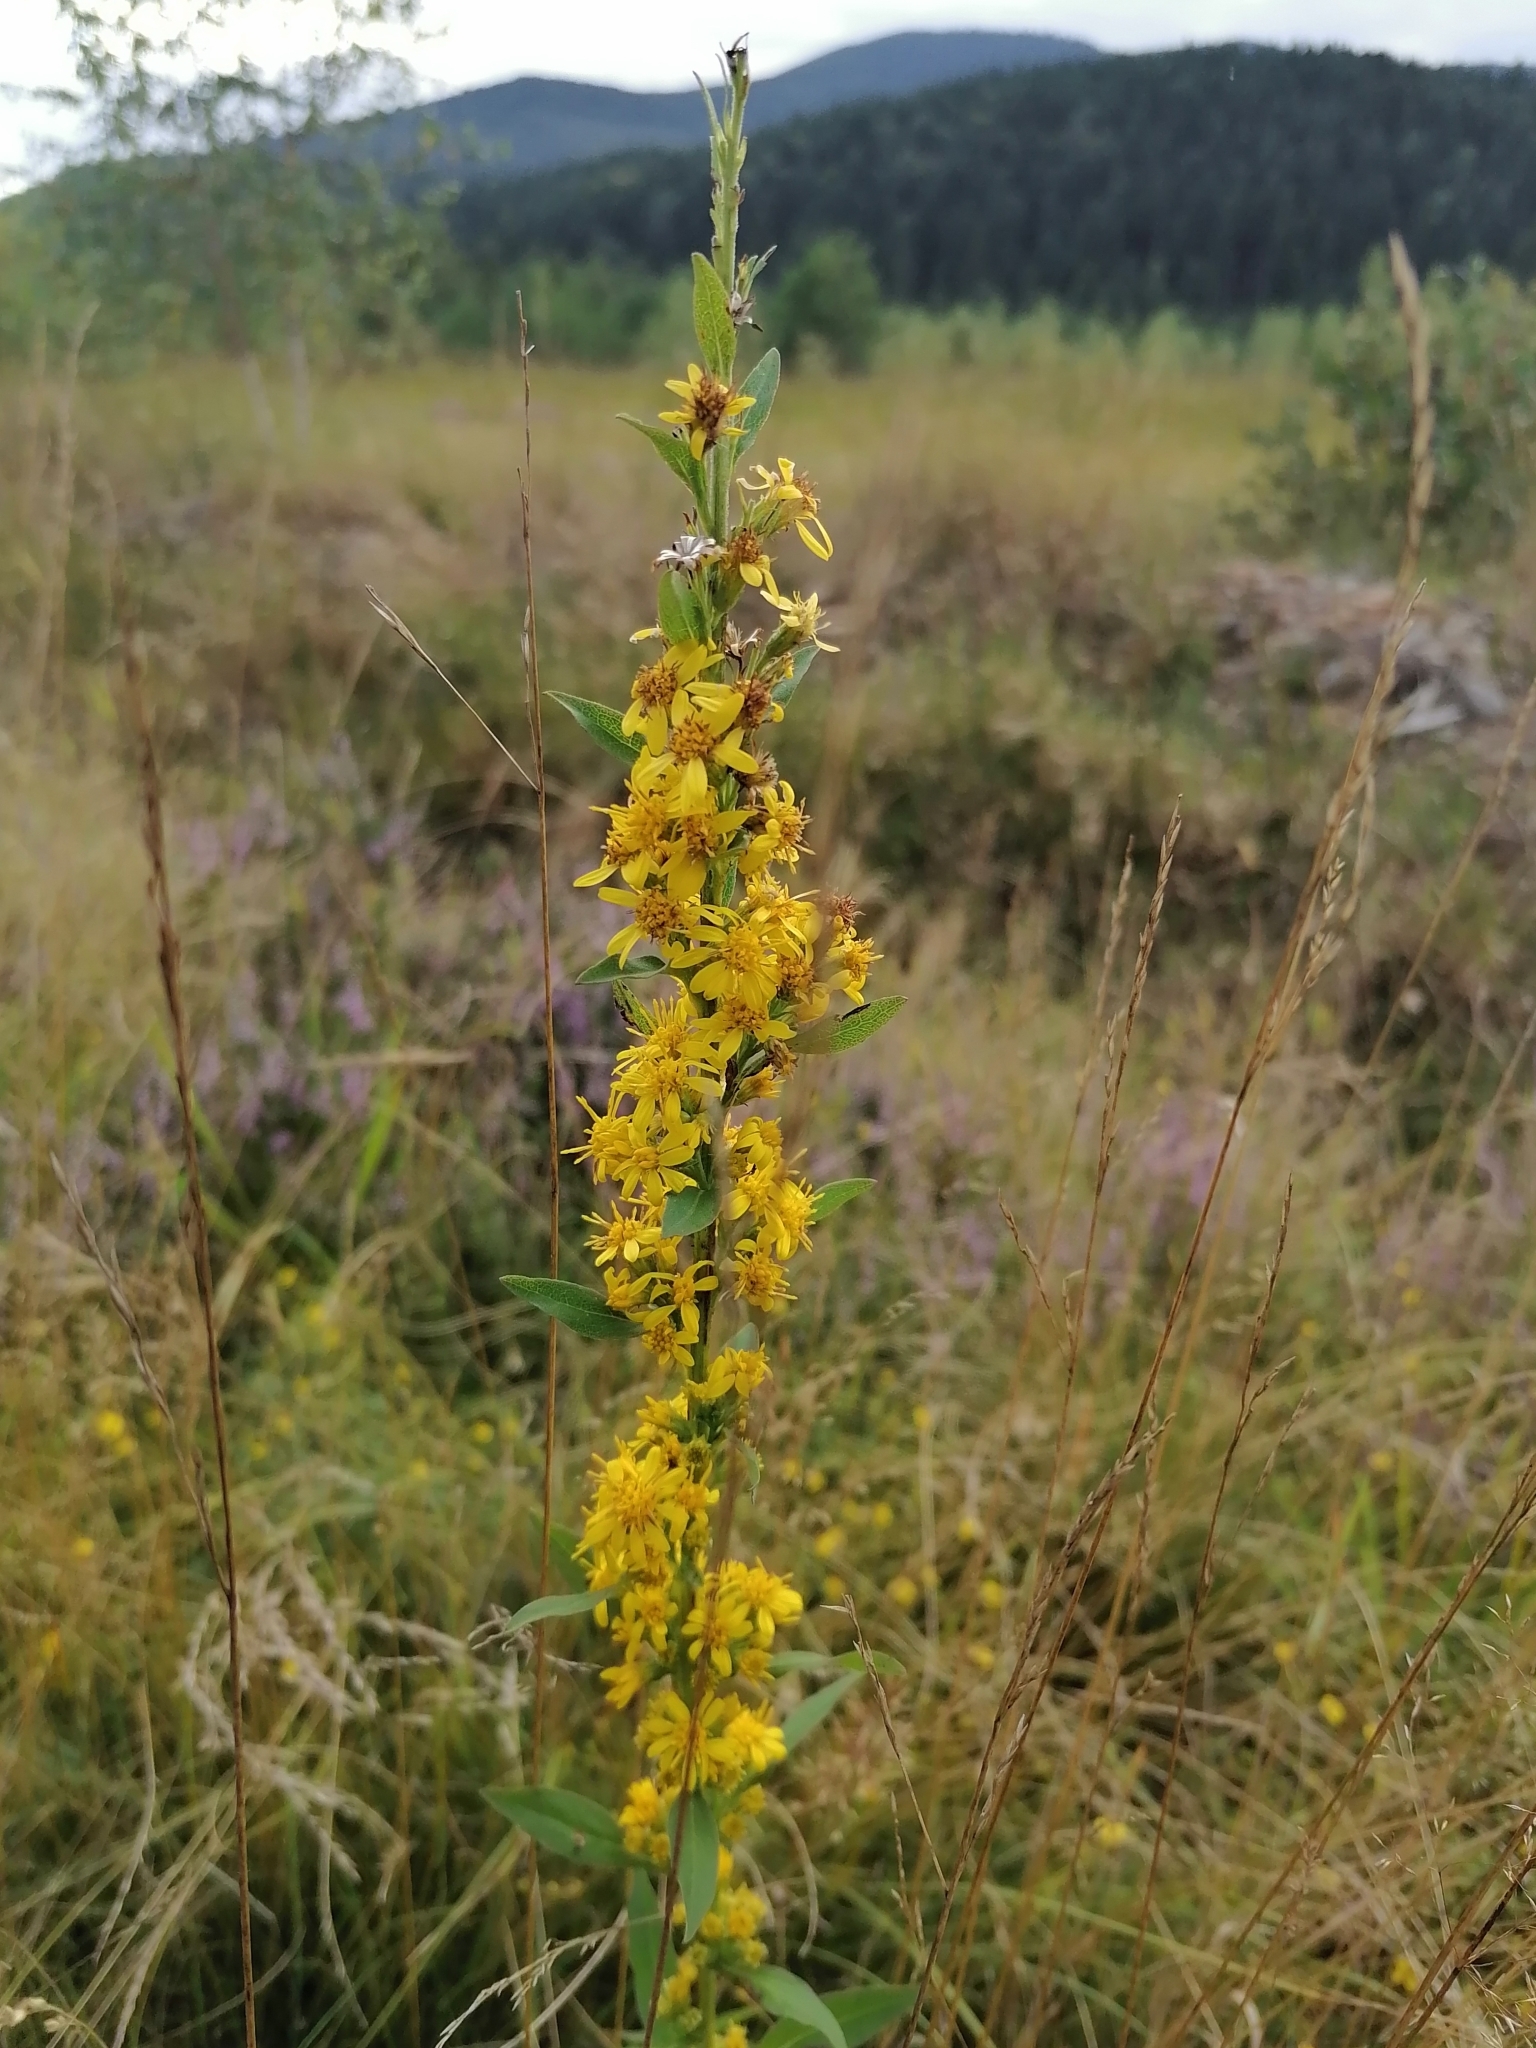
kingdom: Plantae
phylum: Tracheophyta
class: Magnoliopsida
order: Asterales
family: Asteraceae
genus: Solidago
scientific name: Solidago virgaurea
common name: Goldenrod
